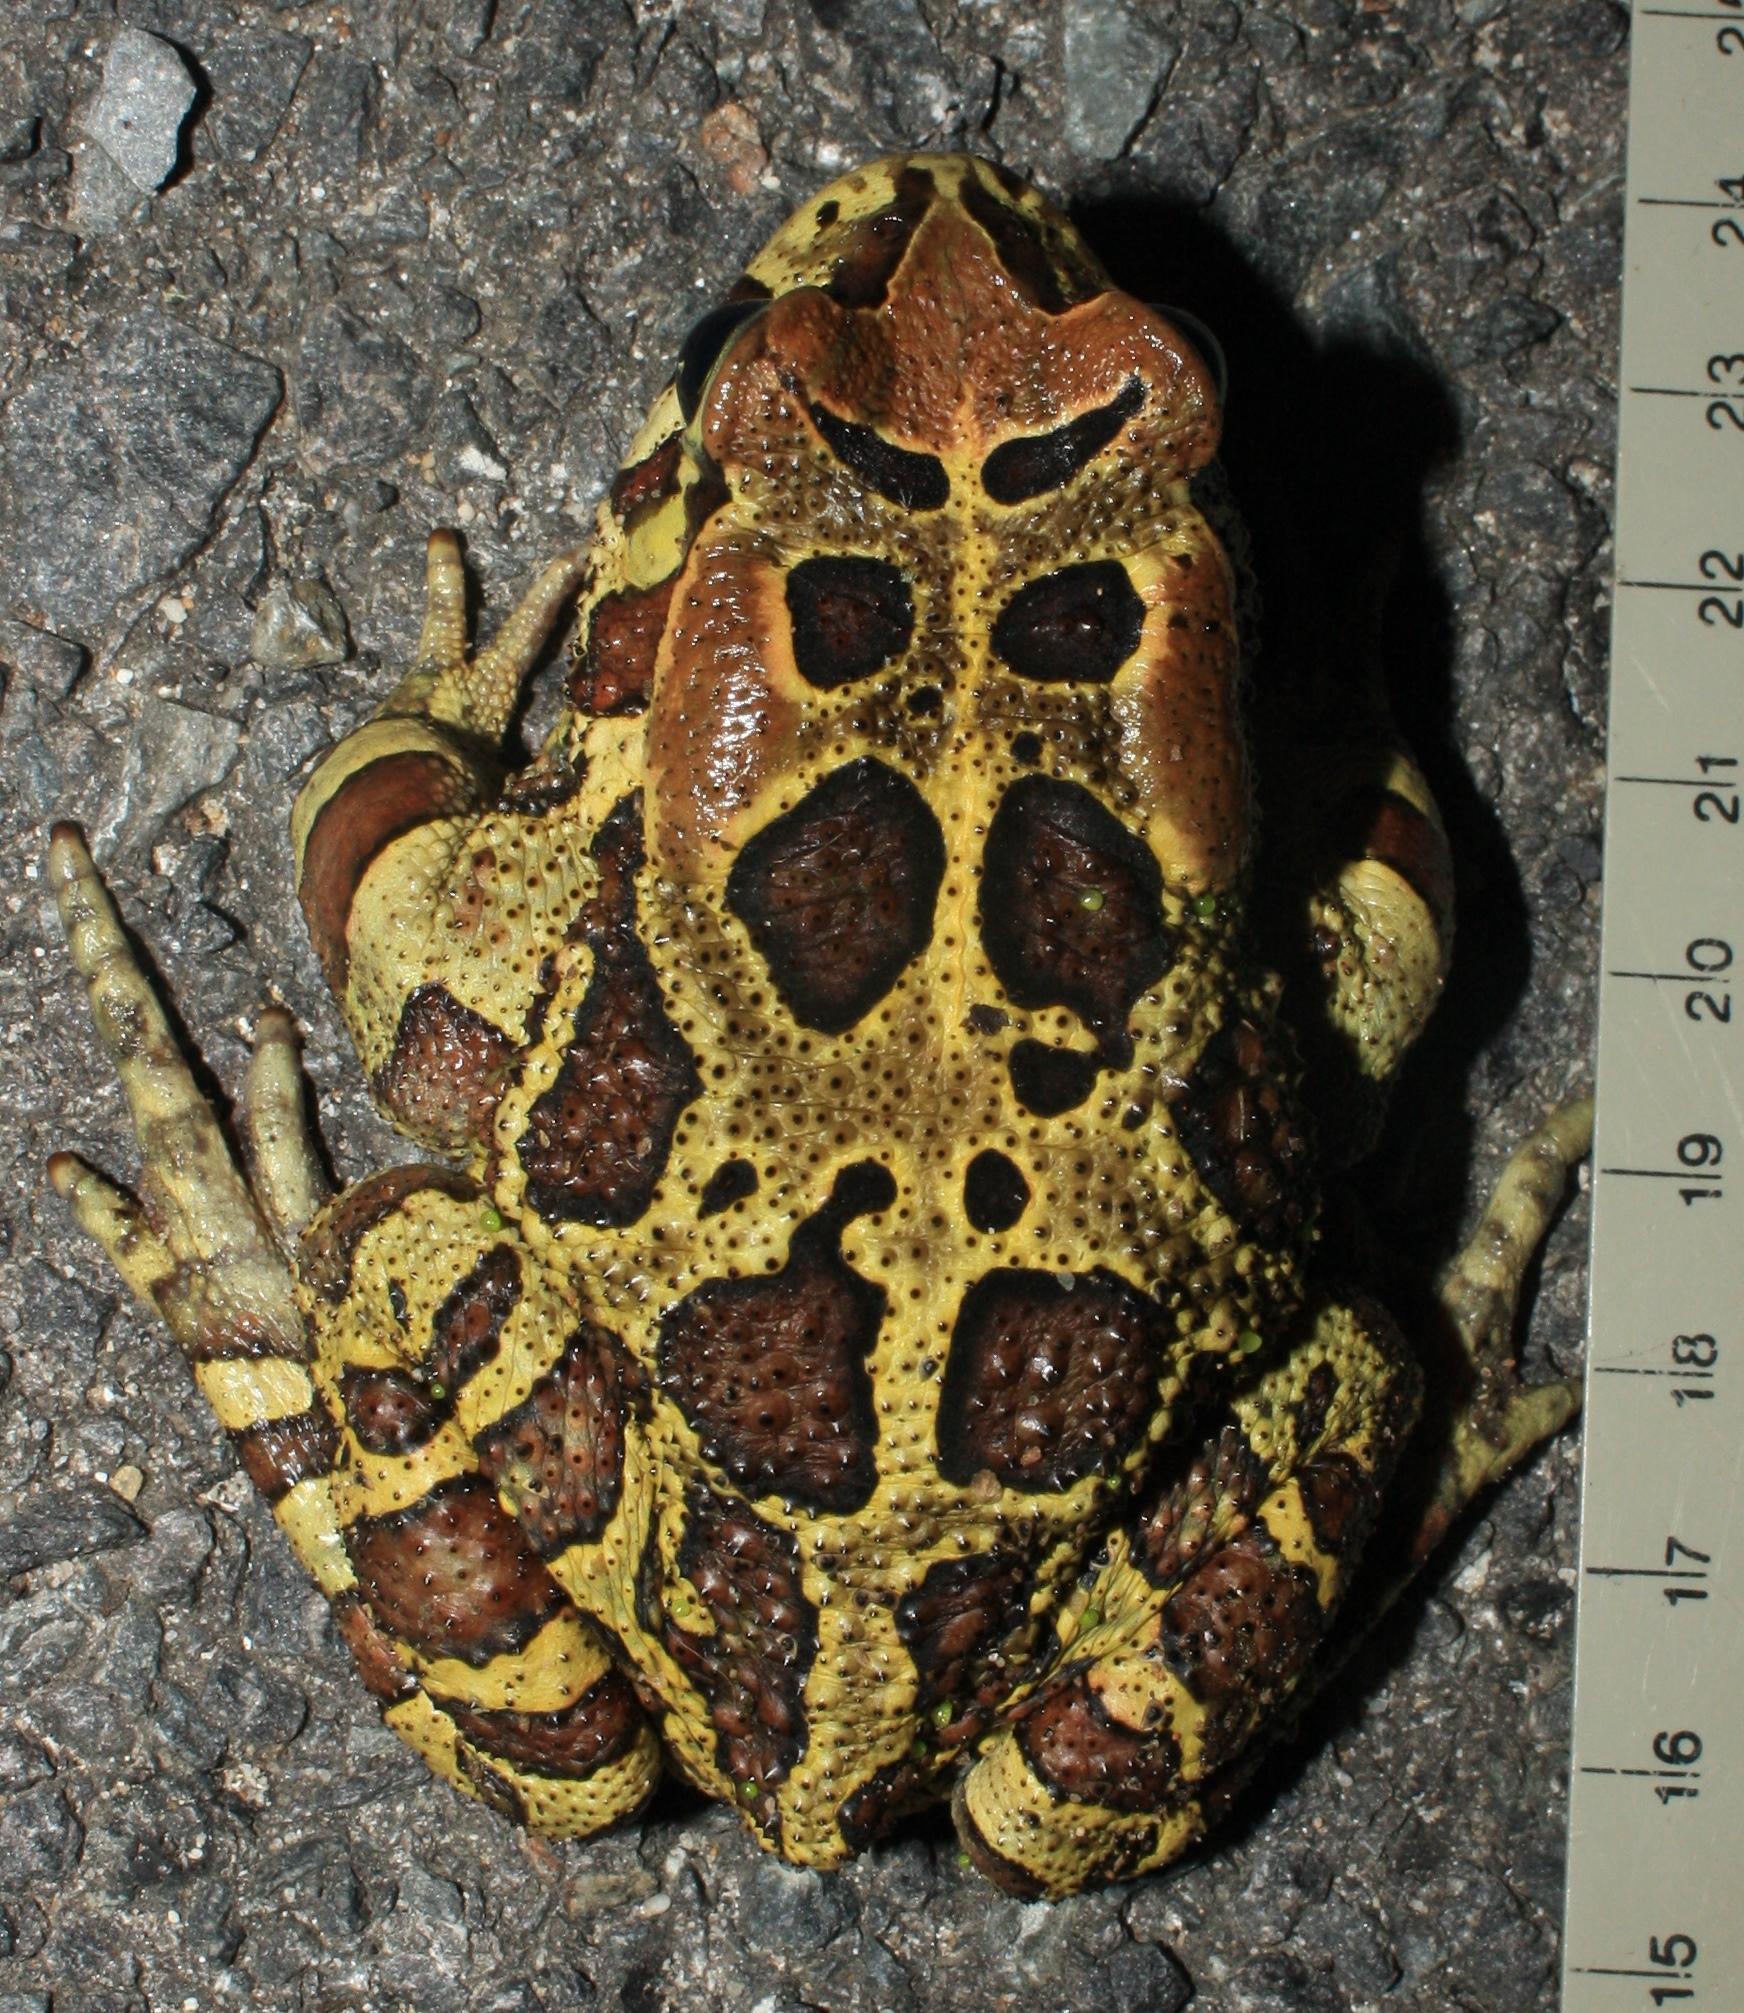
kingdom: Animalia
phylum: Chordata
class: Amphibia
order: Anura
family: Bufonidae
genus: Sclerophrys
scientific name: Sclerophrys pantherina
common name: Panther toad
